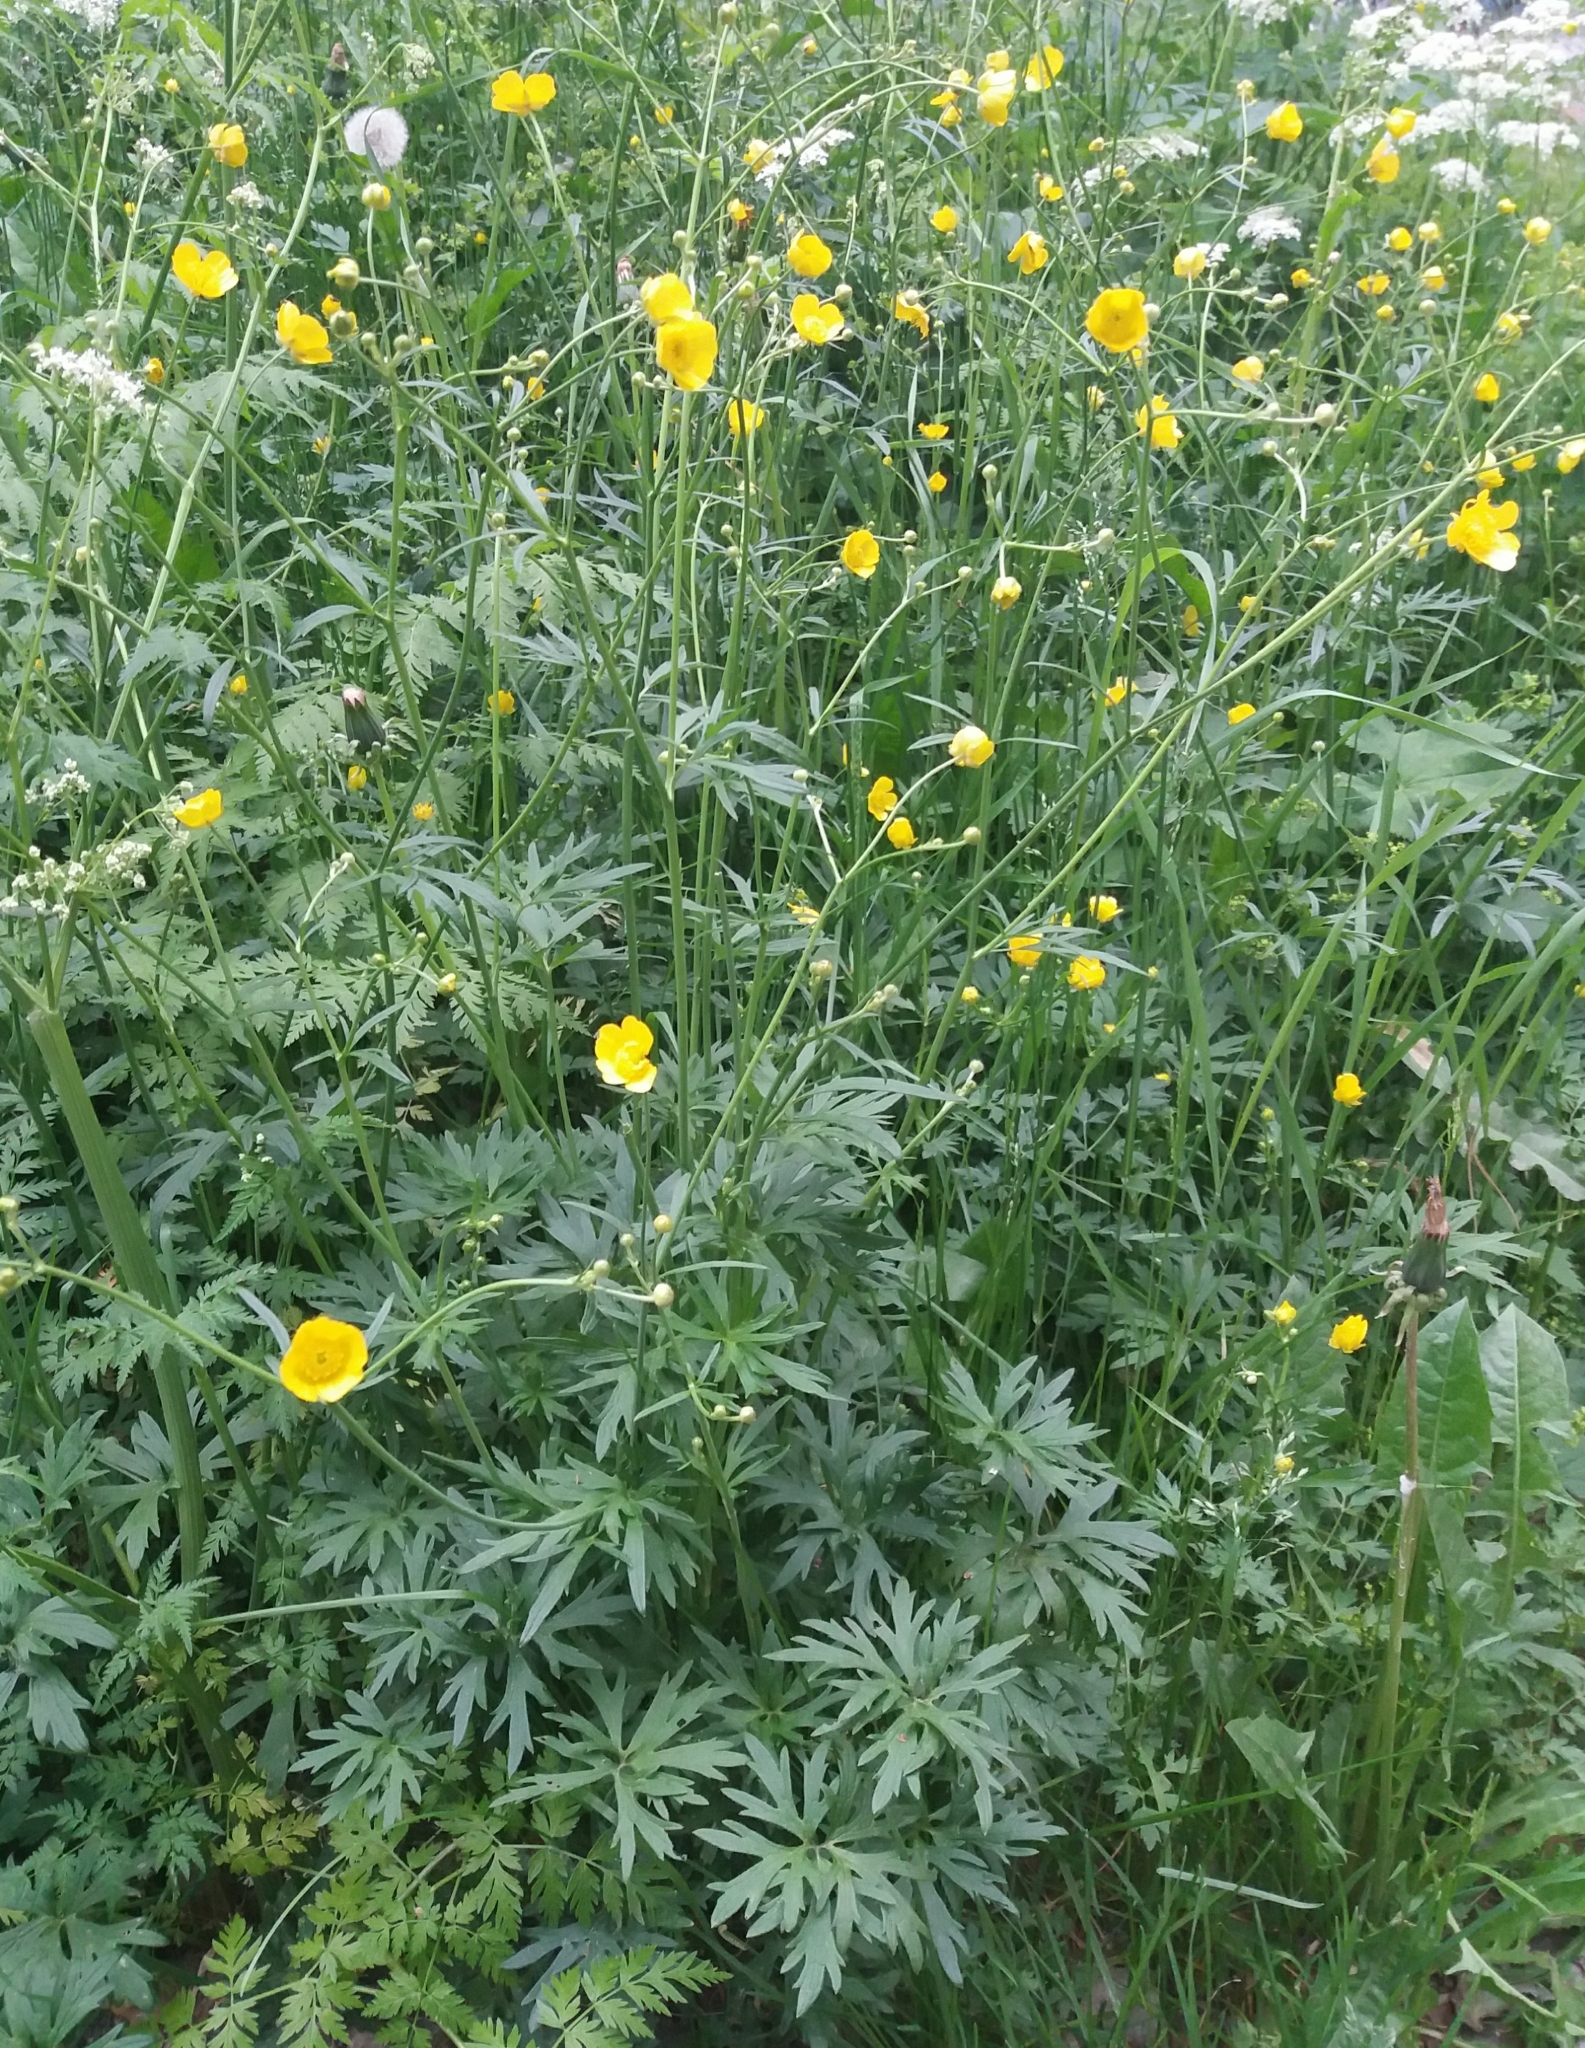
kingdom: Plantae
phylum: Tracheophyta
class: Magnoliopsida
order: Ranunculales
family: Ranunculaceae
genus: Ranunculus
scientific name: Ranunculus repens
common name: Creeping buttercup
